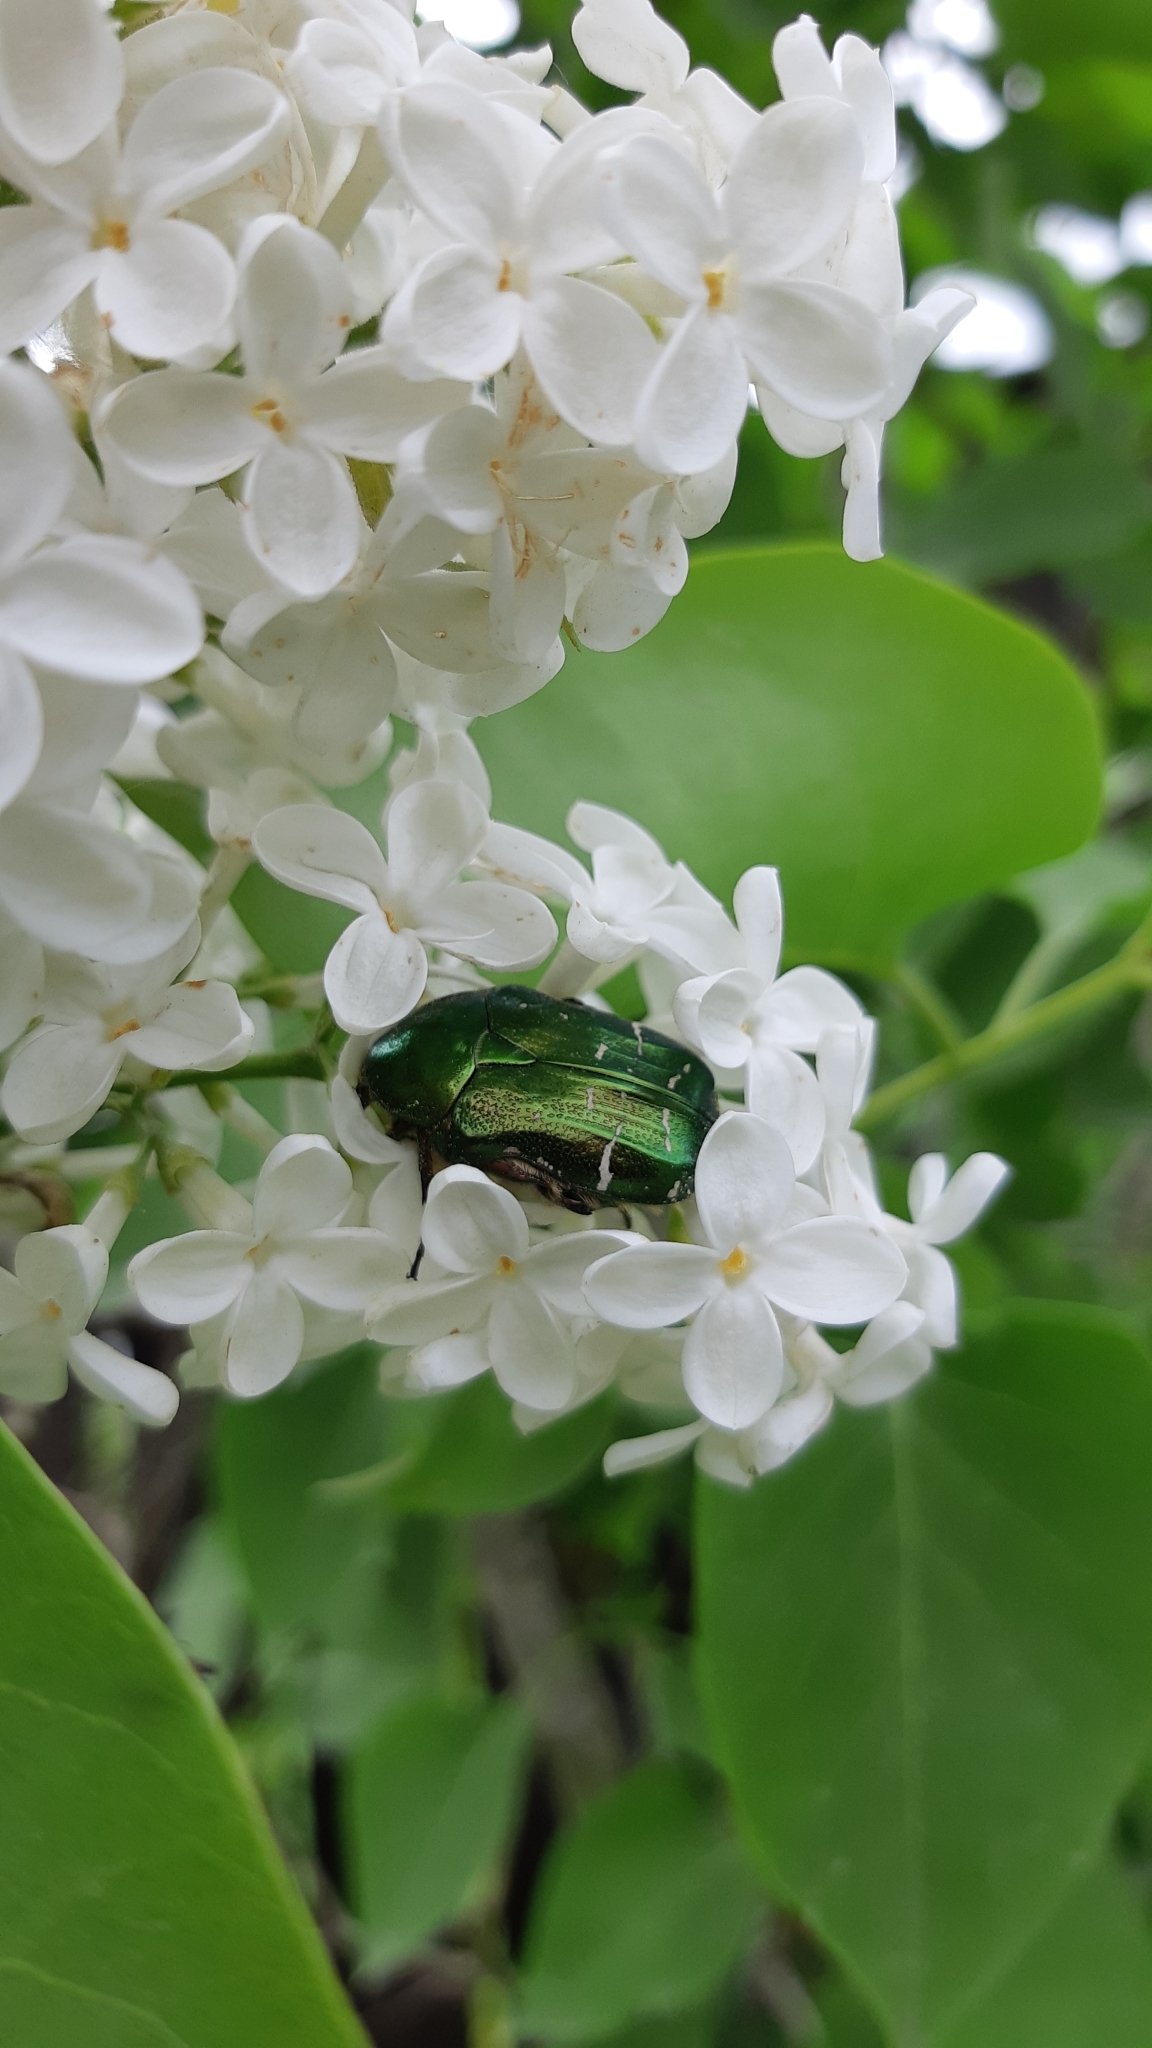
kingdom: Animalia
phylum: Arthropoda
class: Insecta
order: Coleoptera
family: Scarabaeidae
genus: Cetonia
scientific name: Cetonia aurata
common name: Rose chafer
